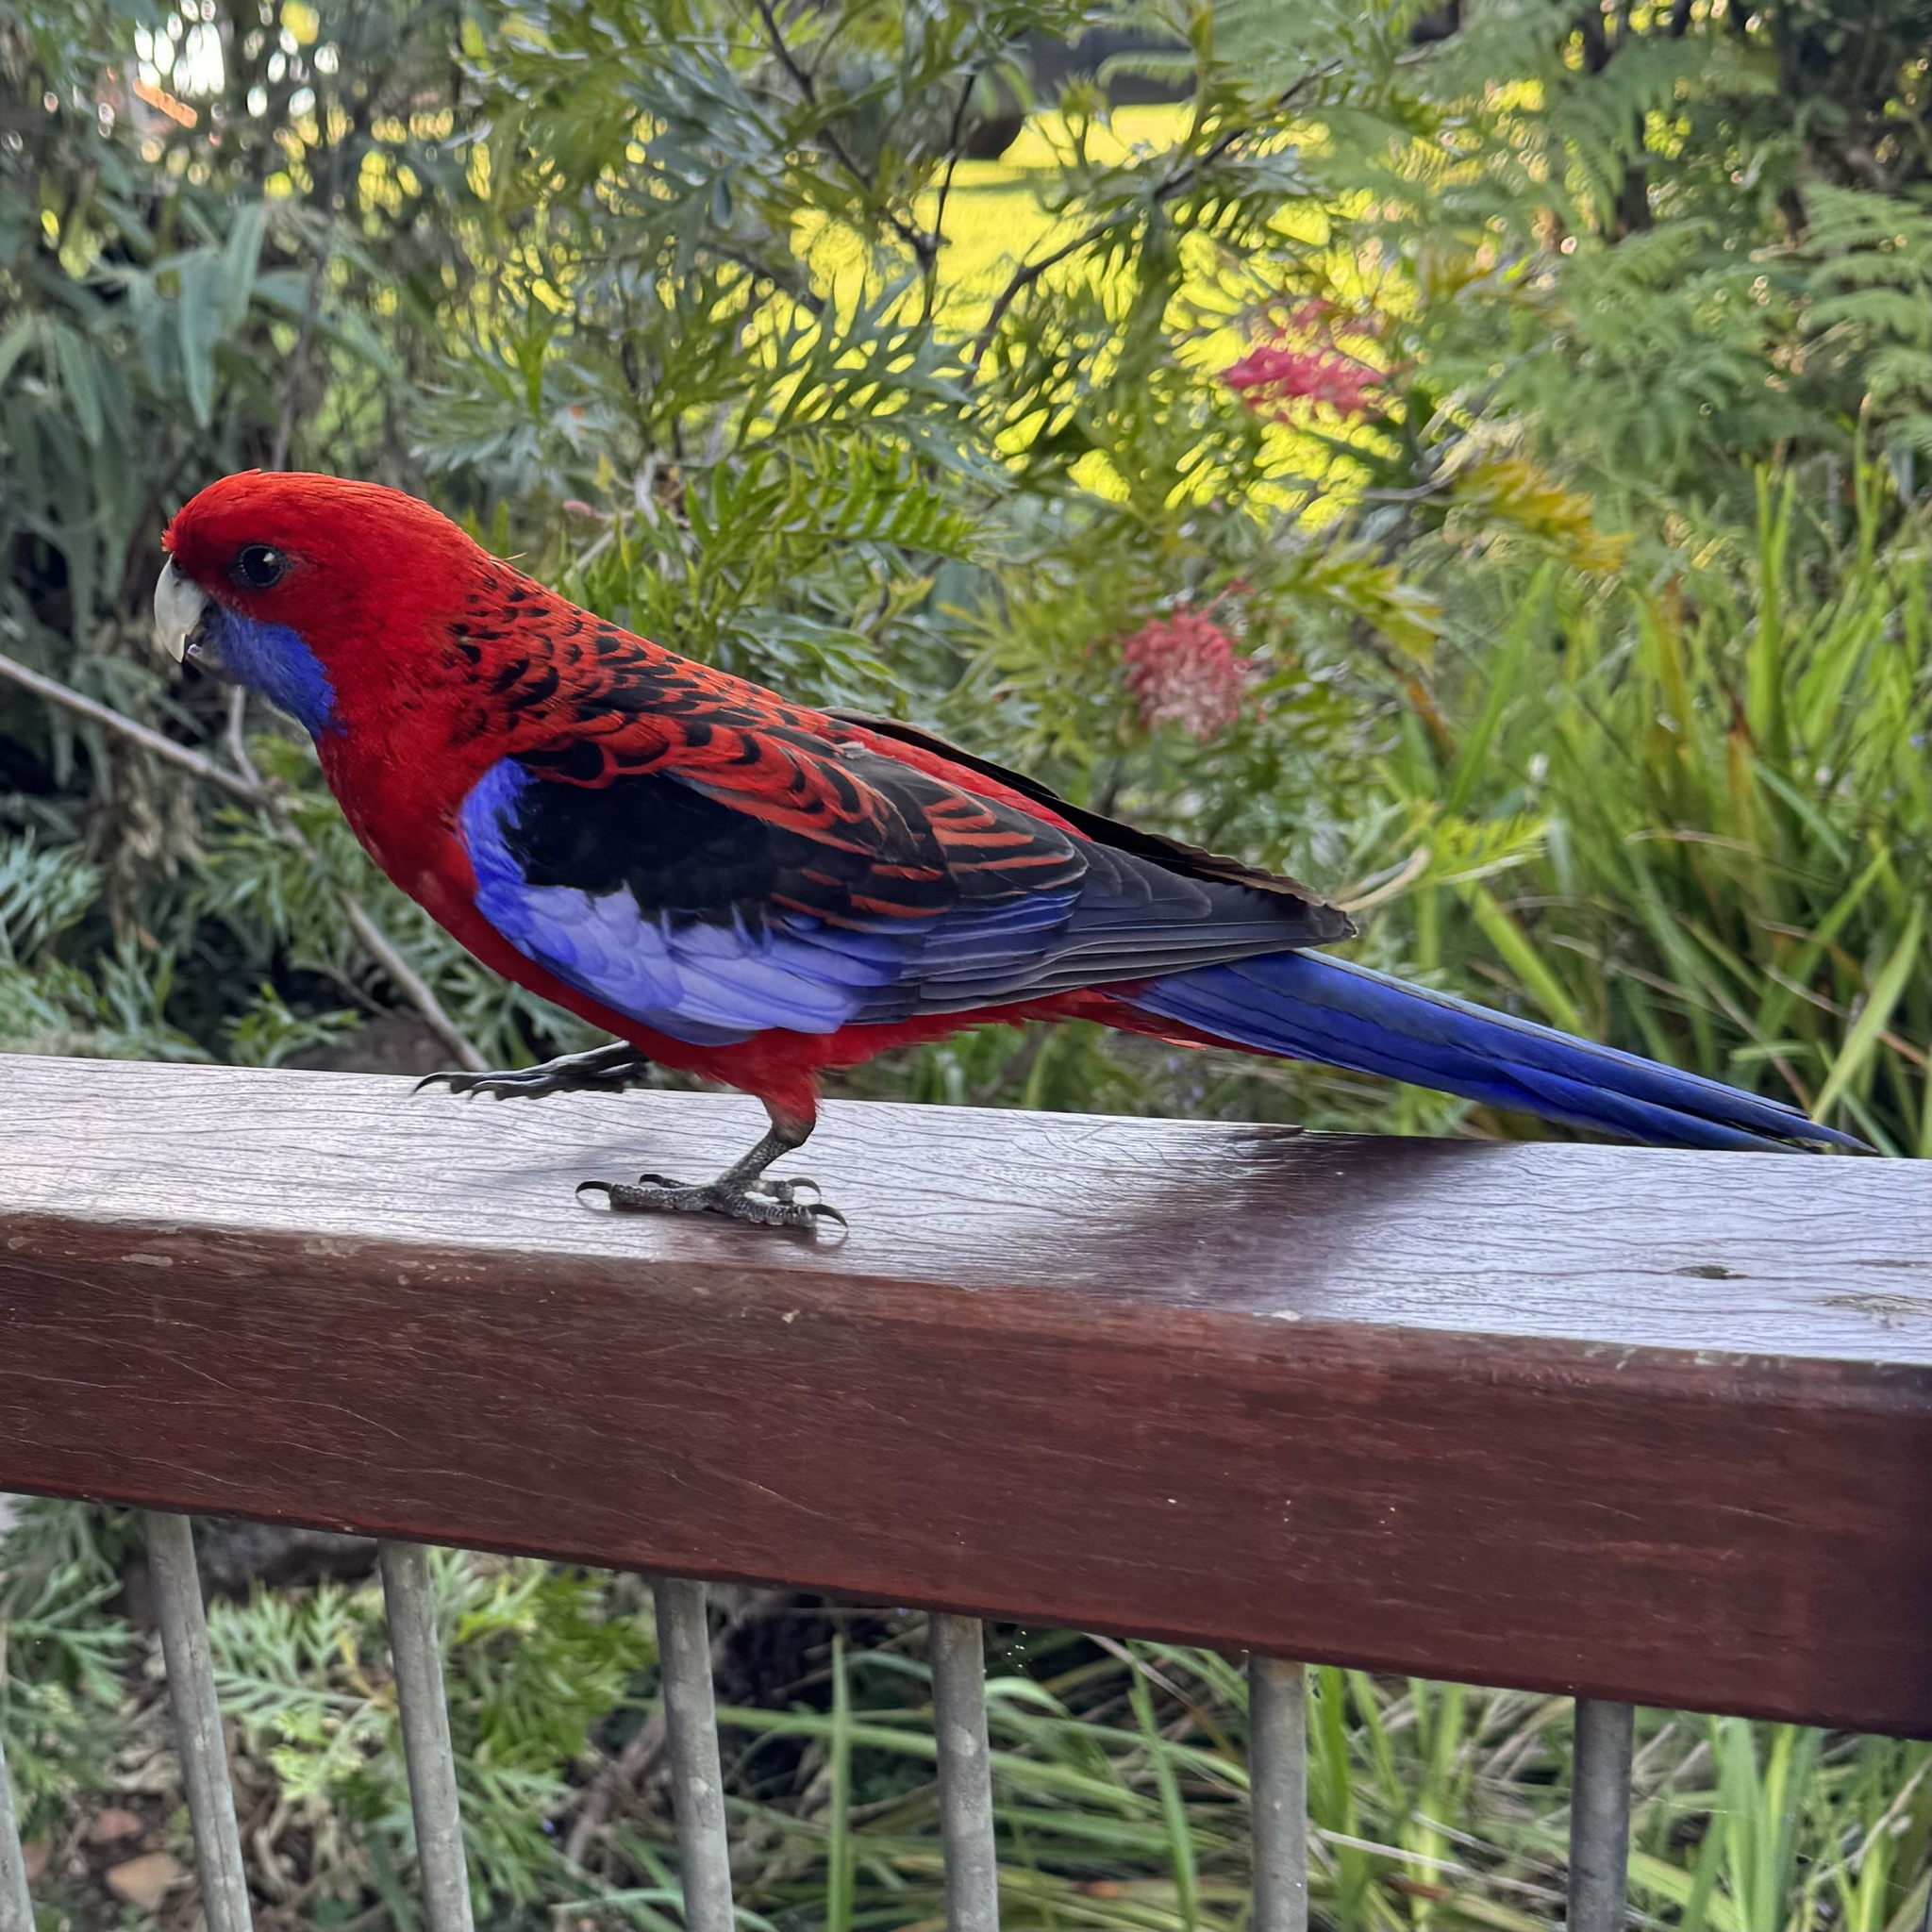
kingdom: Animalia
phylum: Chordata
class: Aves
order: Psittaciformes
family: Psittacidae
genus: Platycercus
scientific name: Platycercus elegans
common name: Crimson rosella
